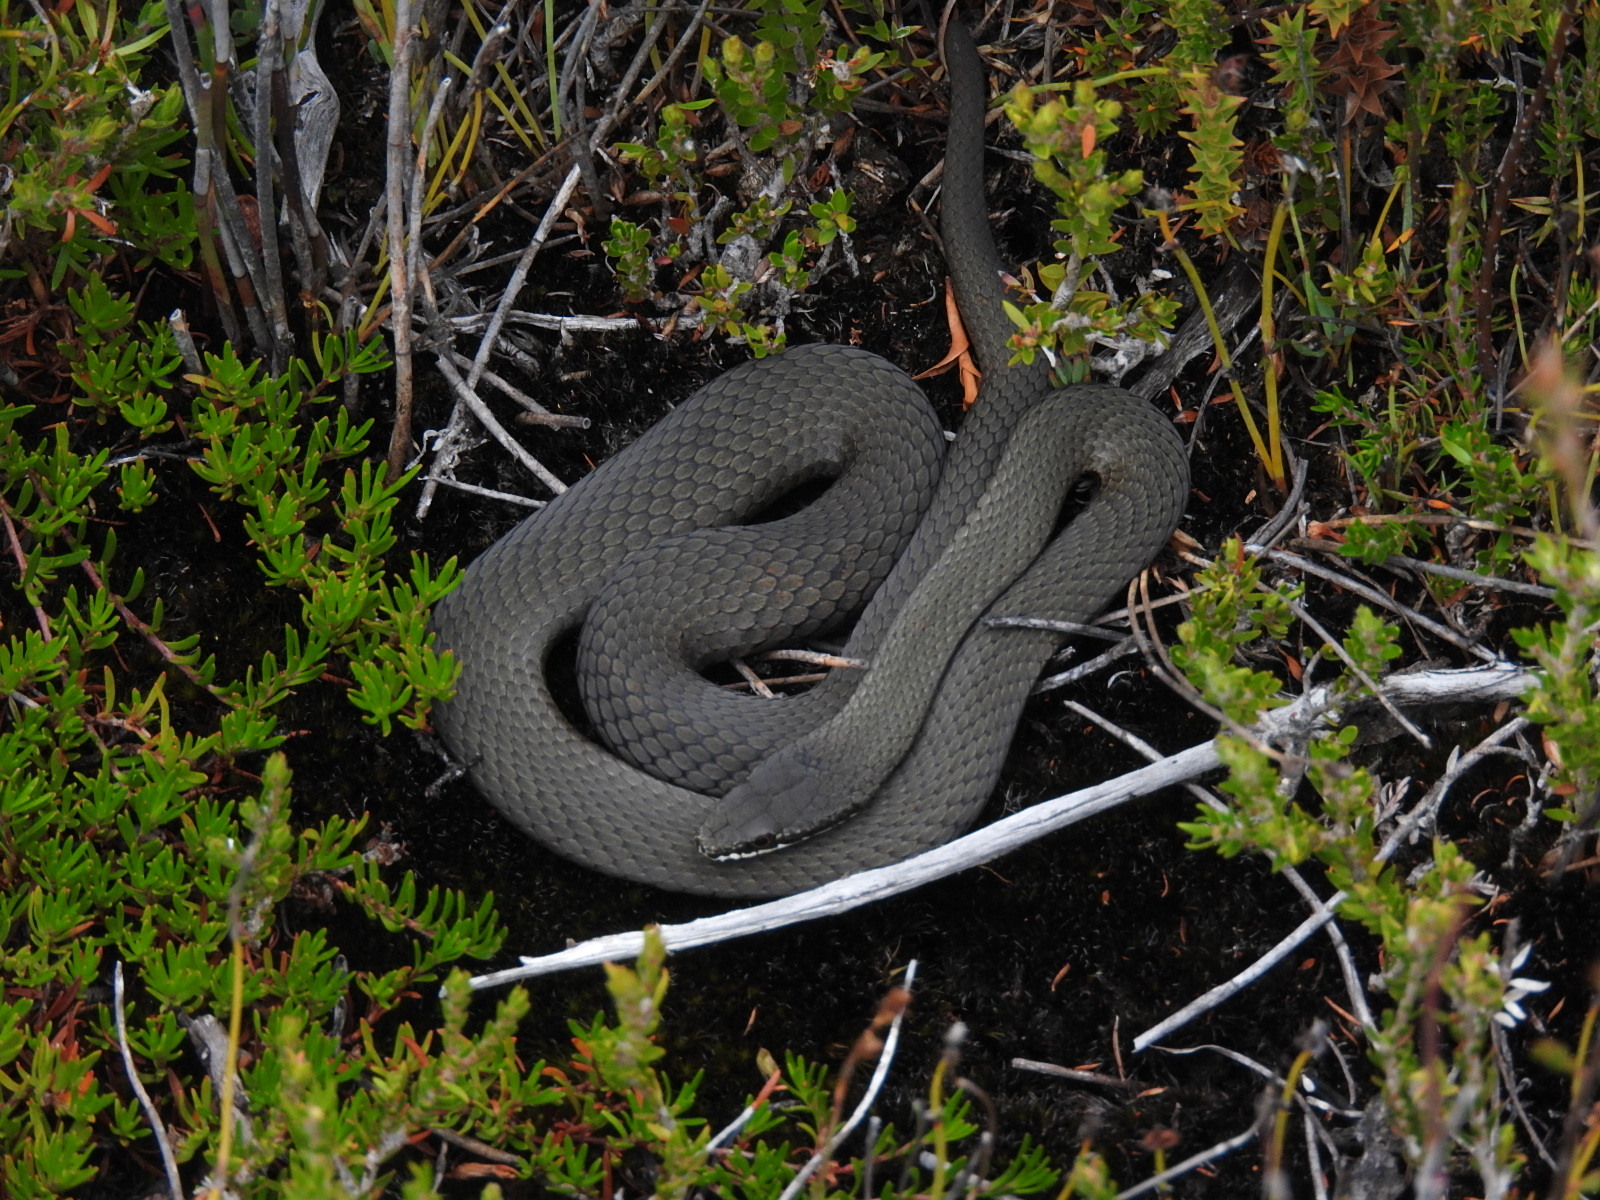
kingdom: Animalia
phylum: Chordata
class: Squamata
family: Elapidae
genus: Drysdalia
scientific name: Drysdalia coronoides
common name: White-lipped snake
